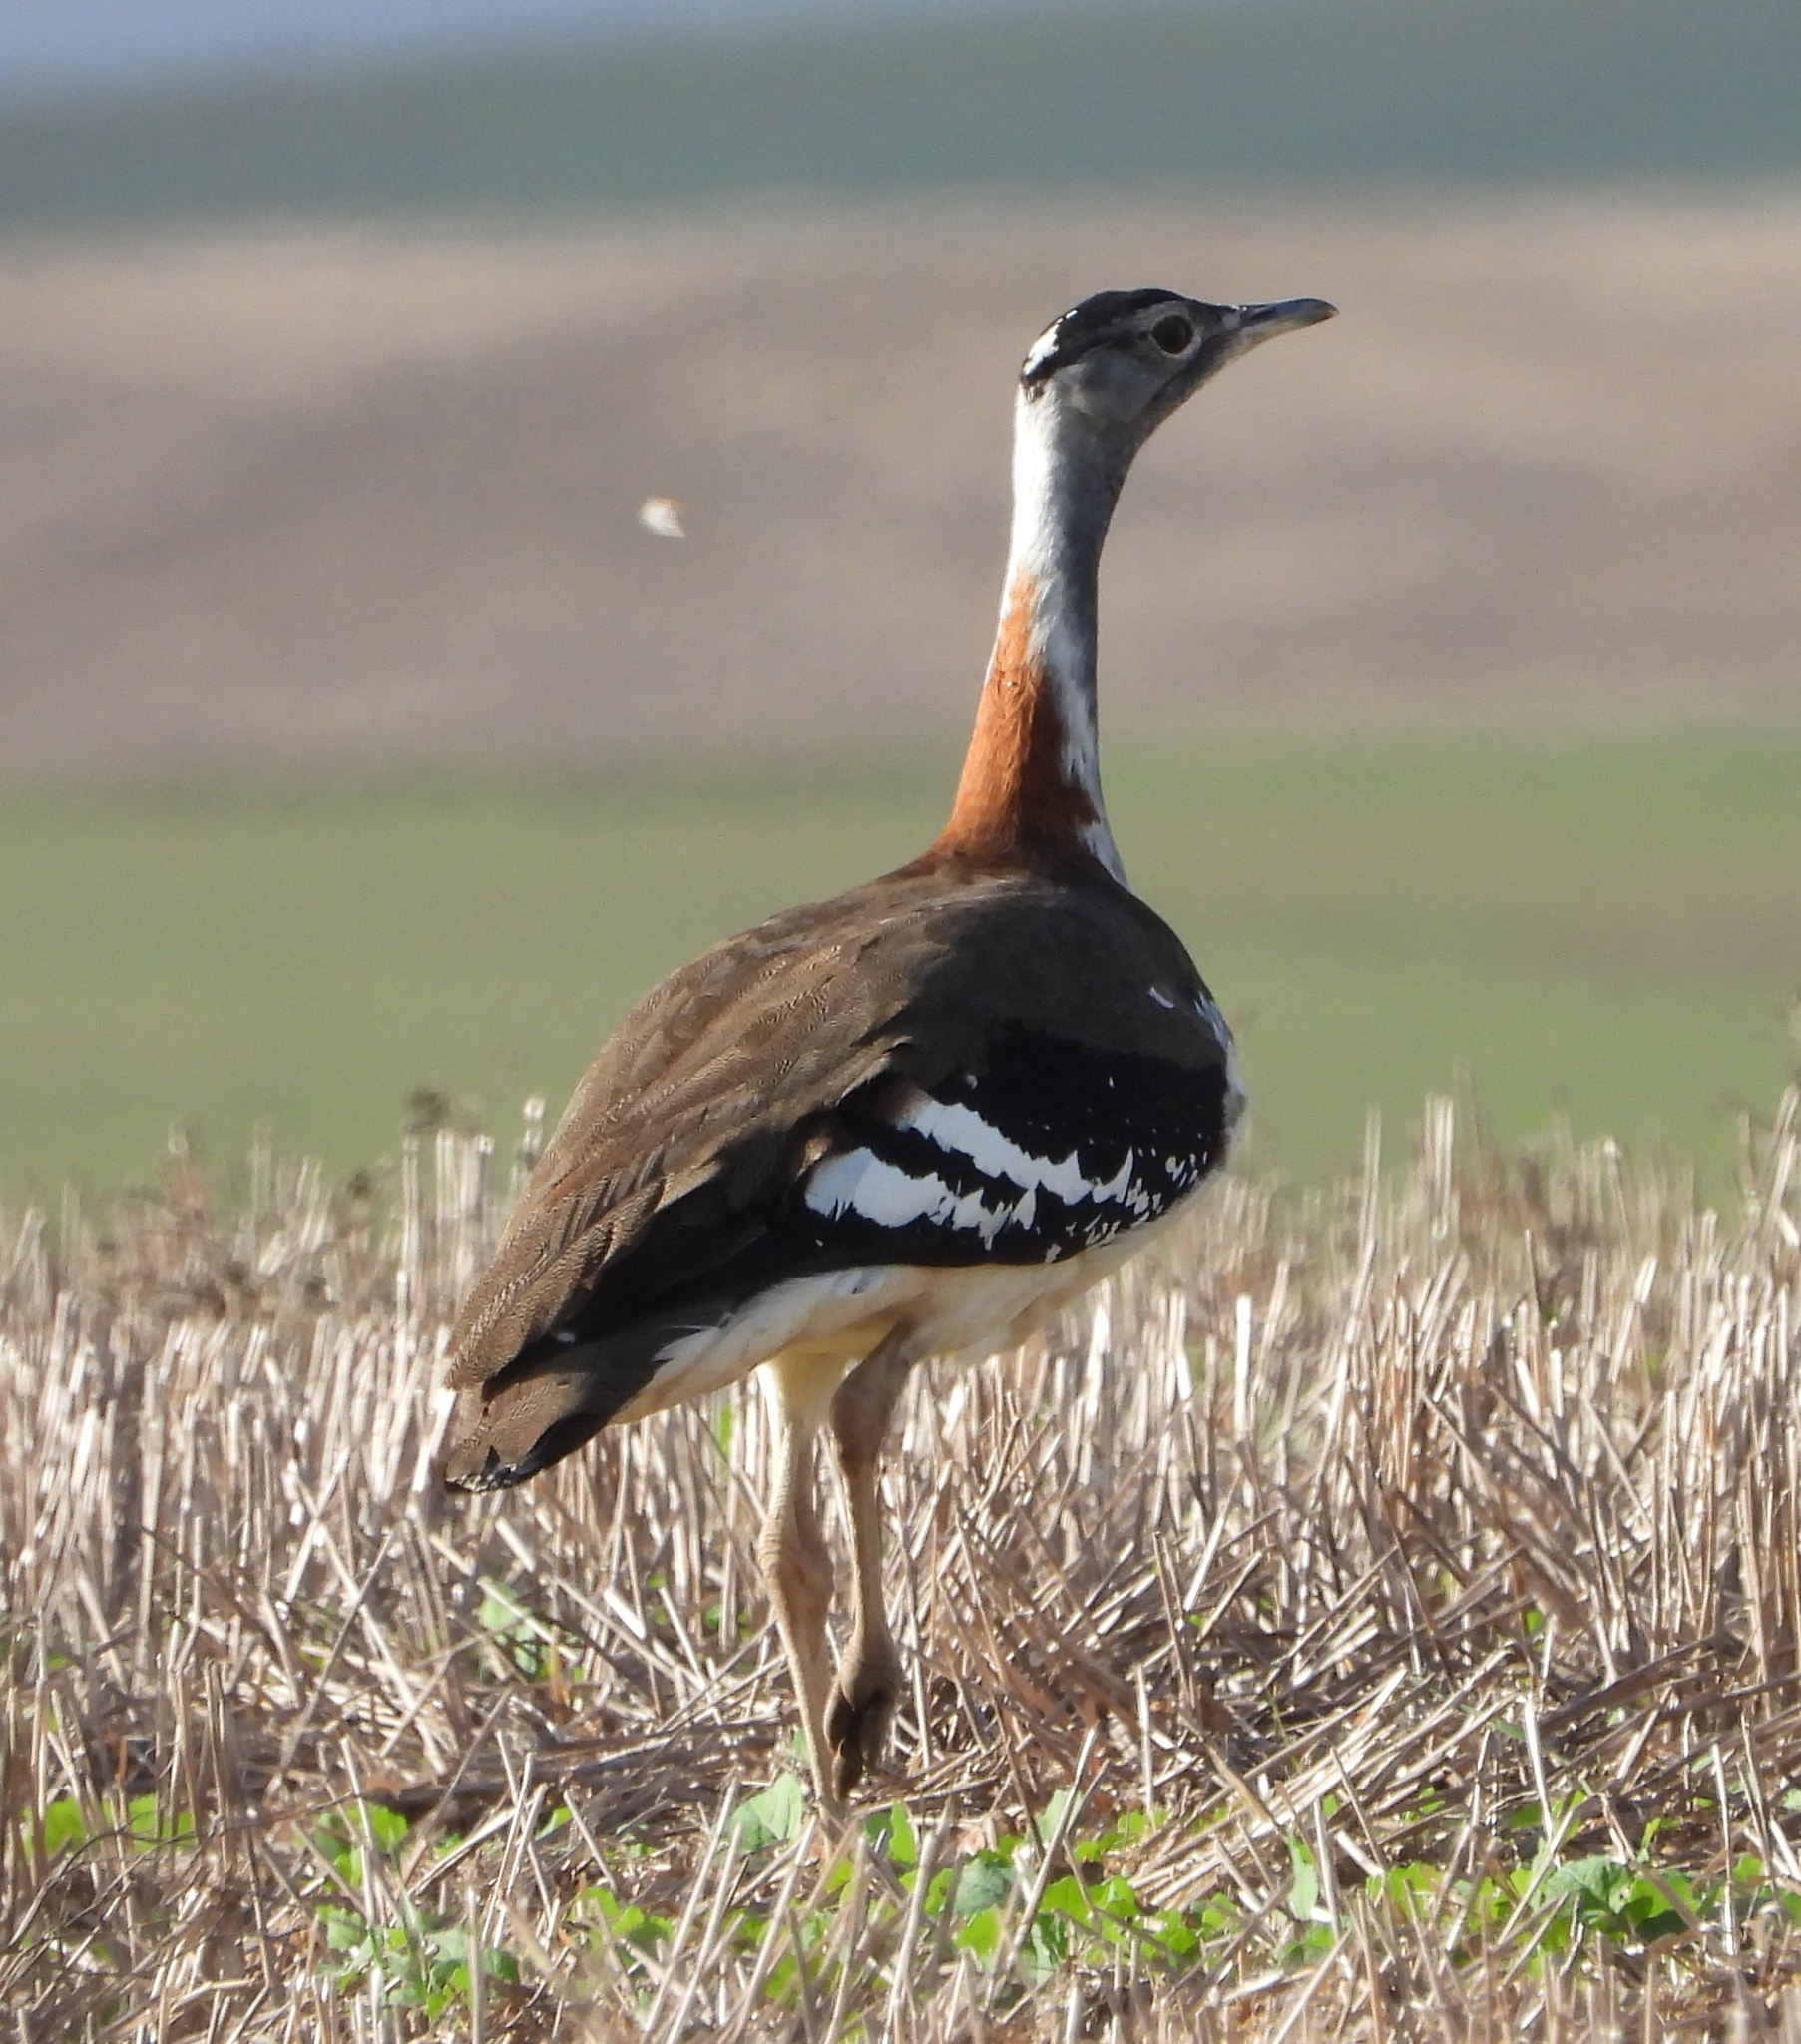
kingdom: Animalia
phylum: Chordata
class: Aves
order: Otidiformes
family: Otididae
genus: Neotis
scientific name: Neotis denhami
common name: Denham's bustard
